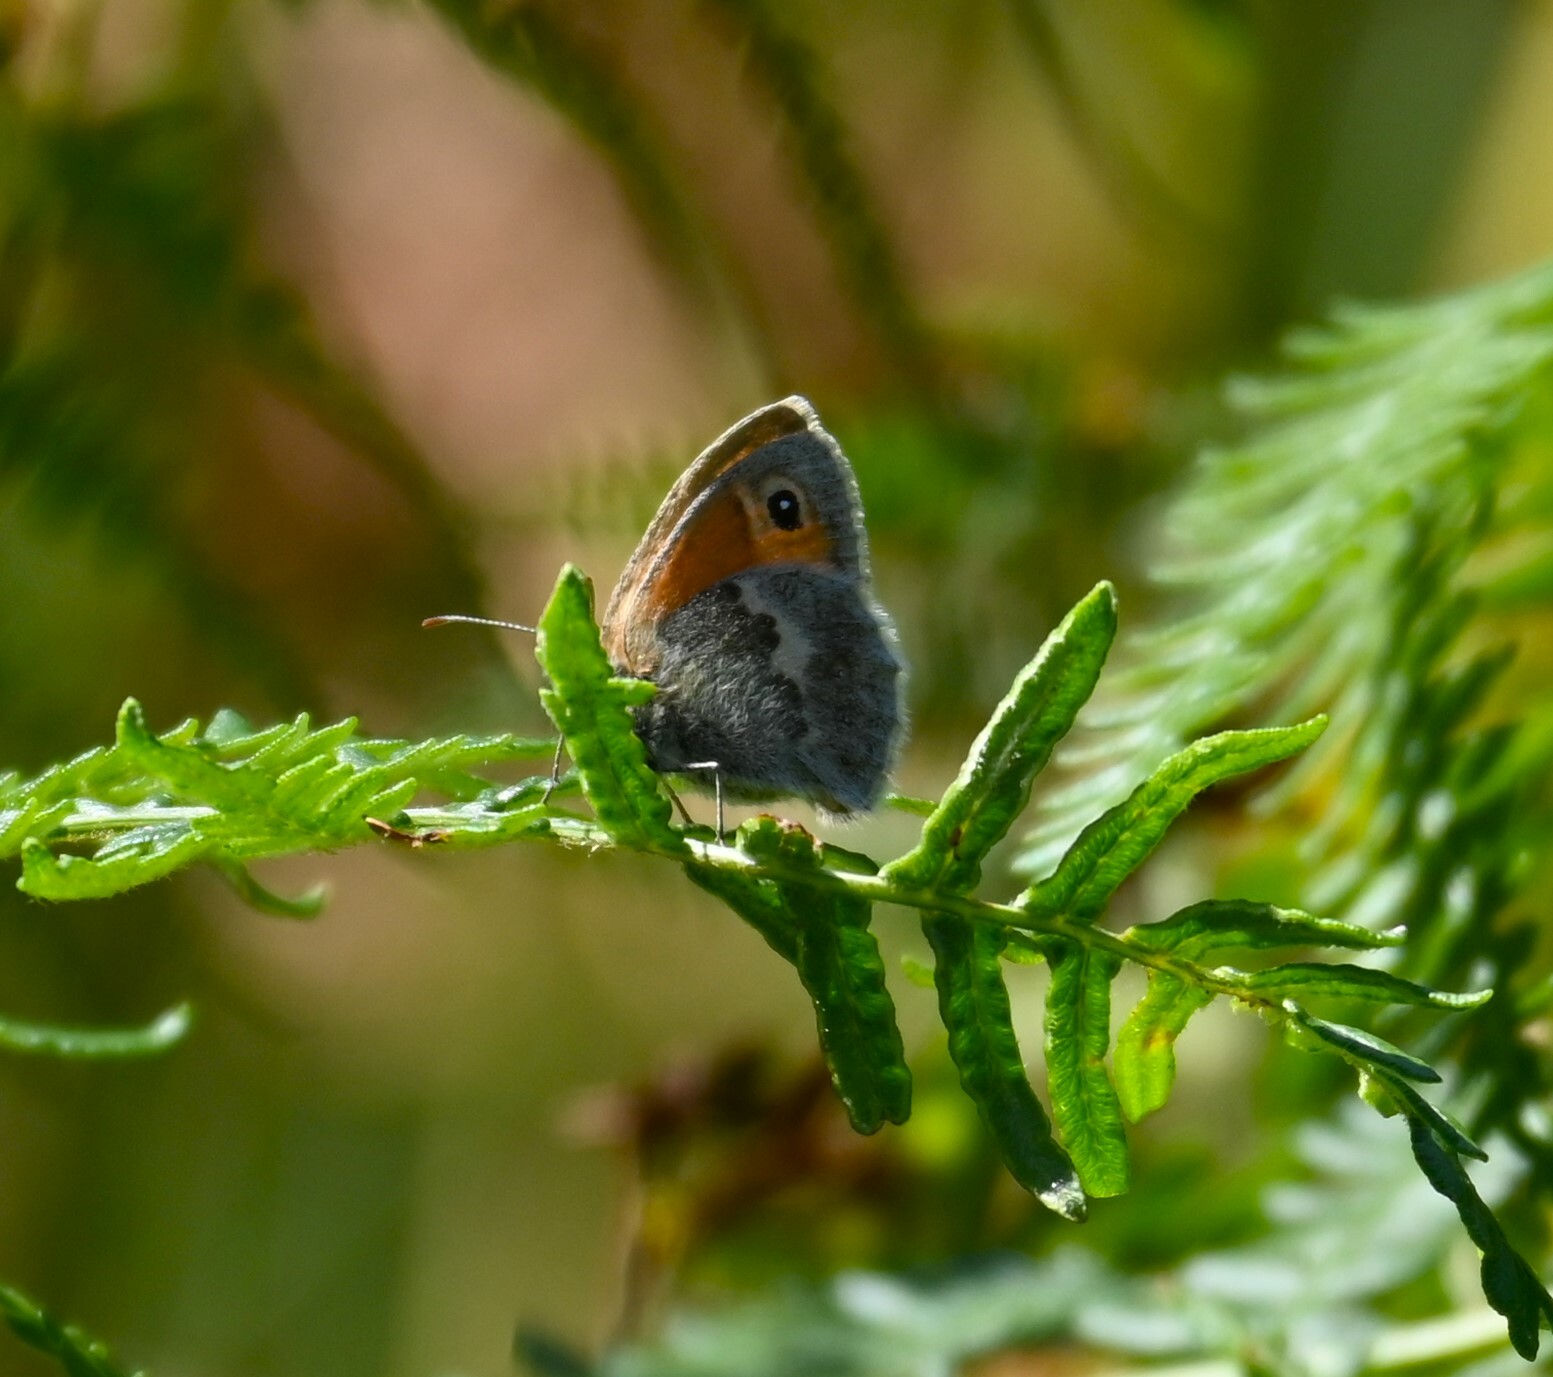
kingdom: Animalia
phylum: Arthropoda
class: Insecta
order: Lepidoptera
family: Nymphalidae
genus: Coenonympha
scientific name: Coenonympha pamphilus
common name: Small heath
